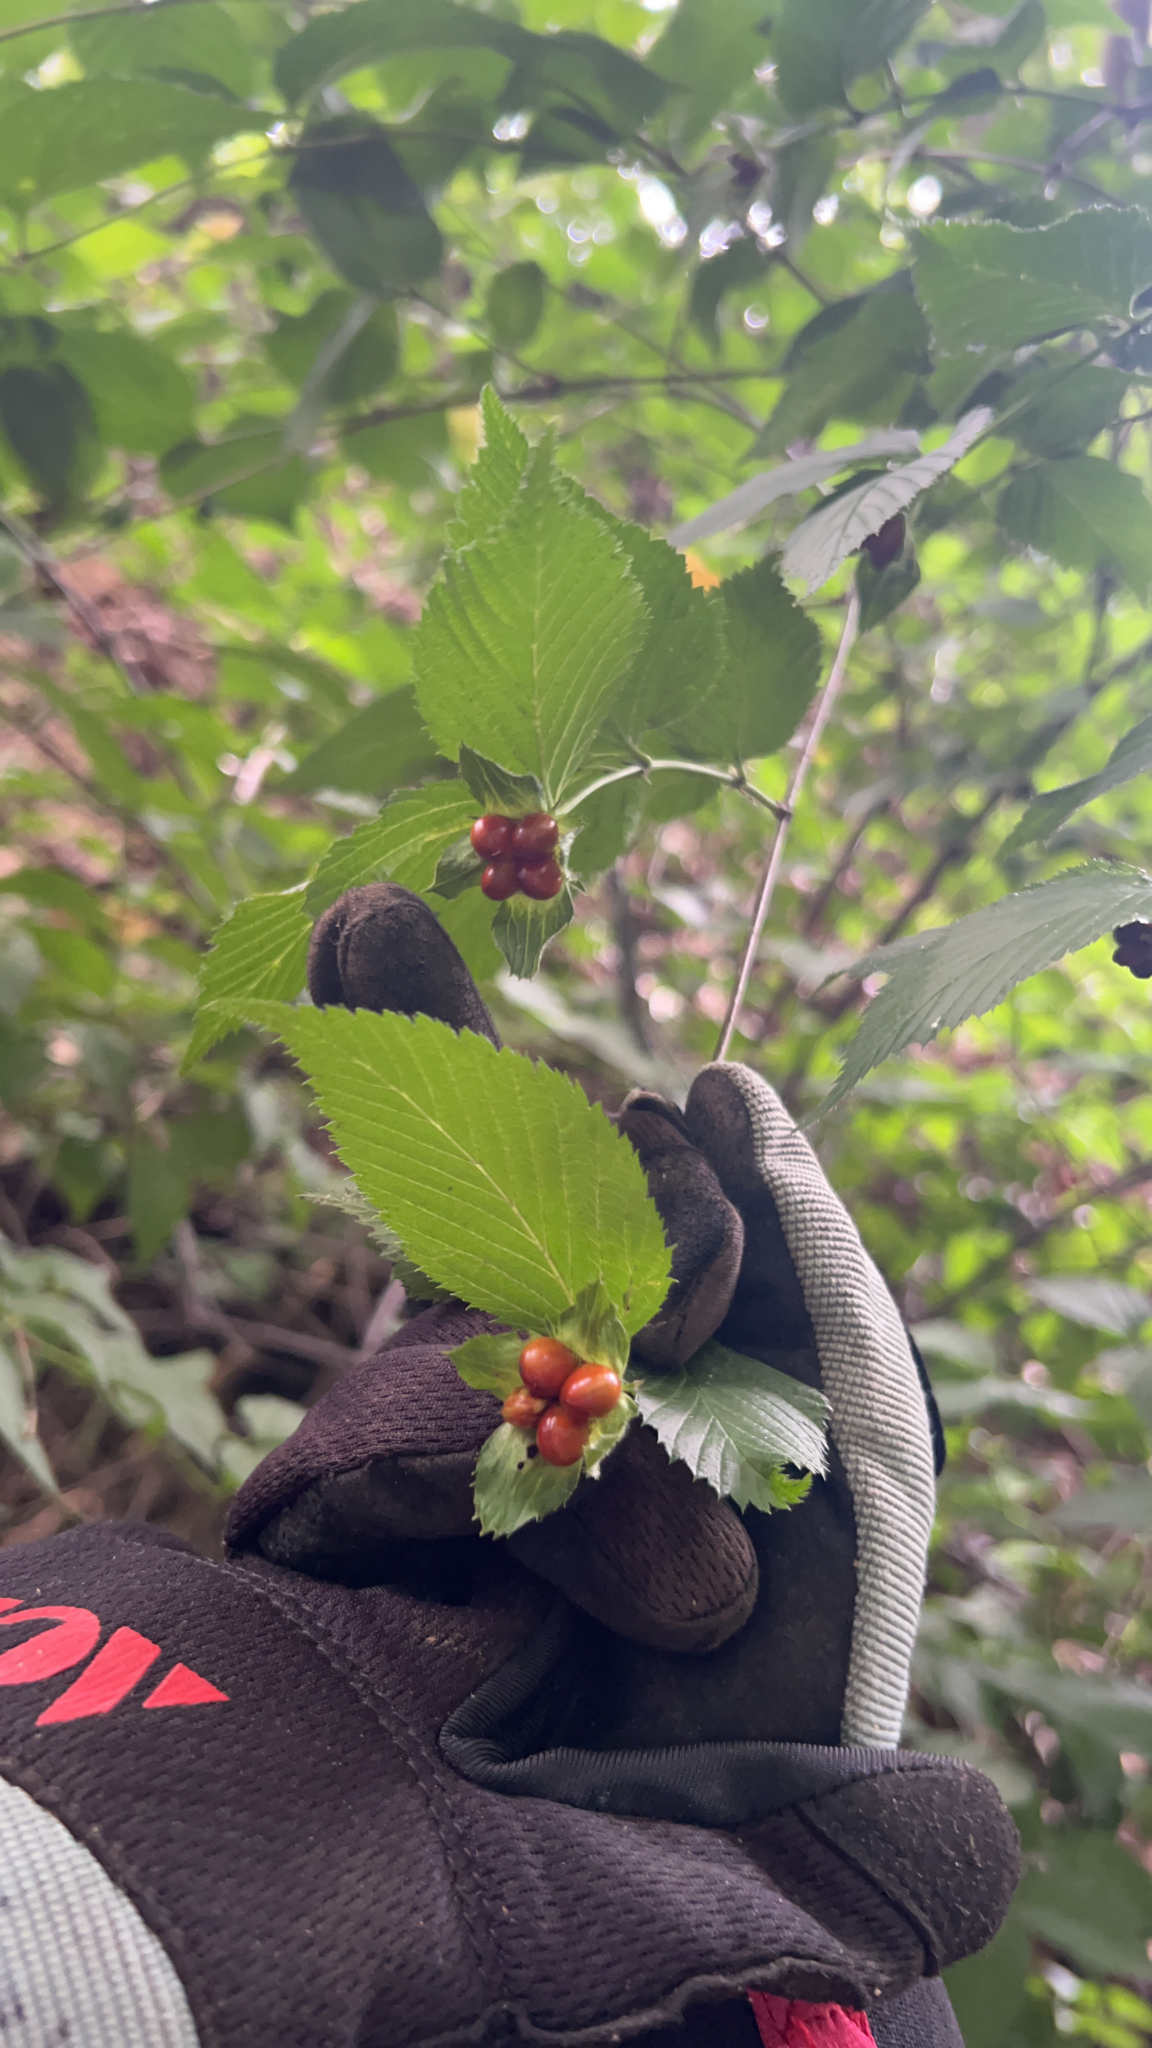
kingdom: Plantae
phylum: Tracheophyta
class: Magnoliopsida
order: Rosales
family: Rosaceae
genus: Rhodotypos
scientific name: Rhodotypos scandens
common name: Jetbead
